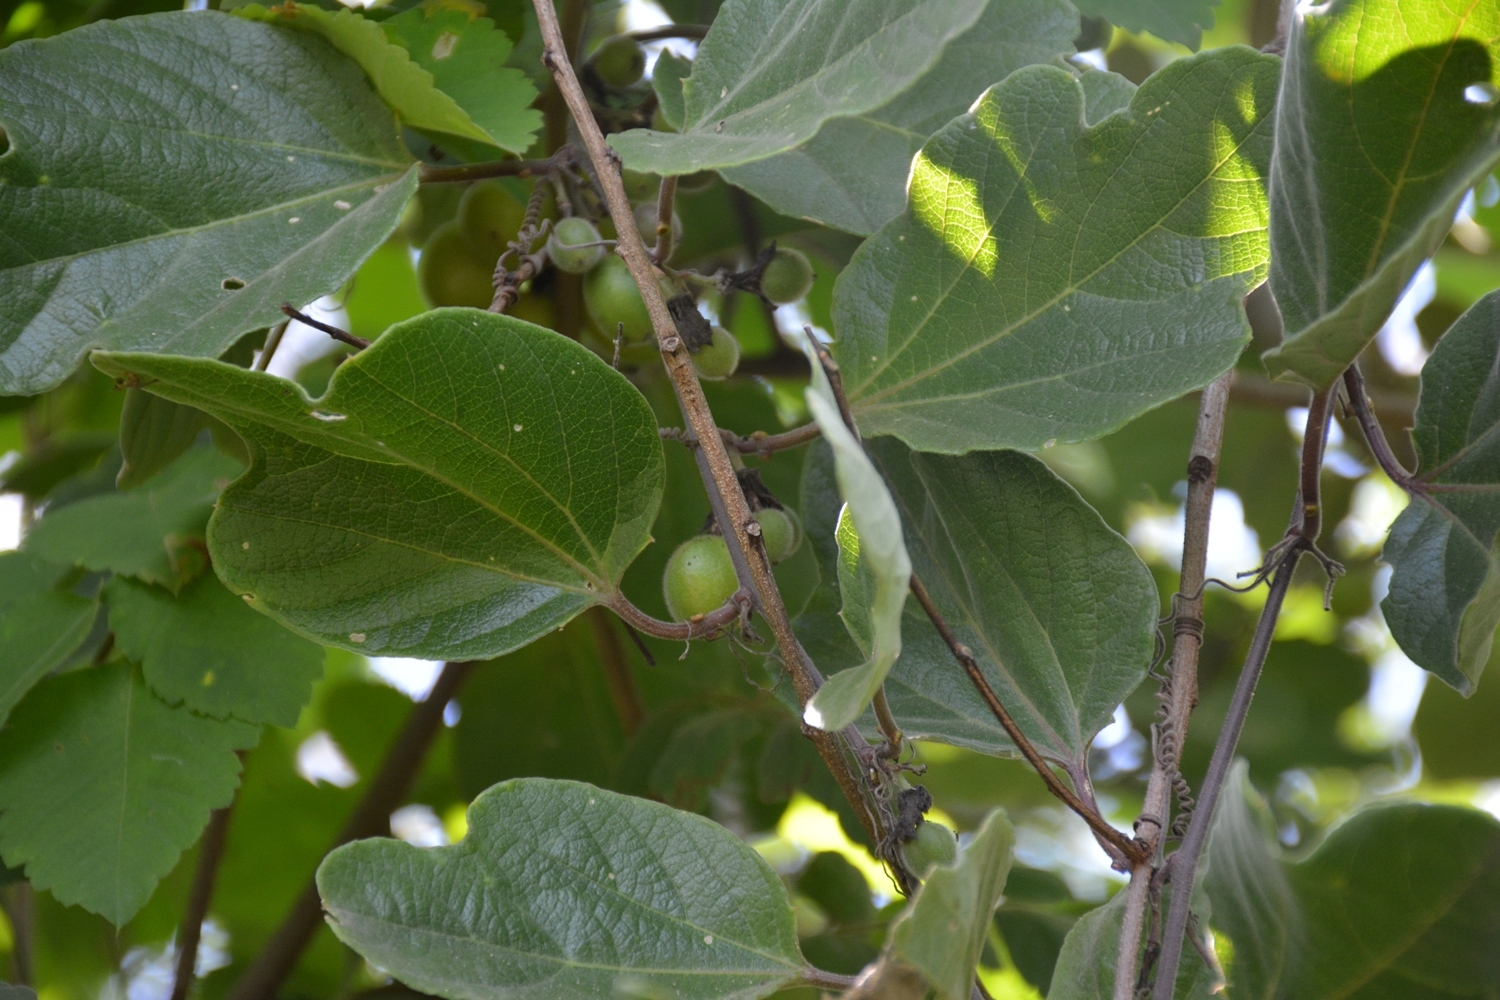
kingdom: Plantae
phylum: Tracheophyta
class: Magnoliopsida
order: Malpighiales
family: Passifloraceae
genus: Passiflora
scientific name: Passiflora holosericea
